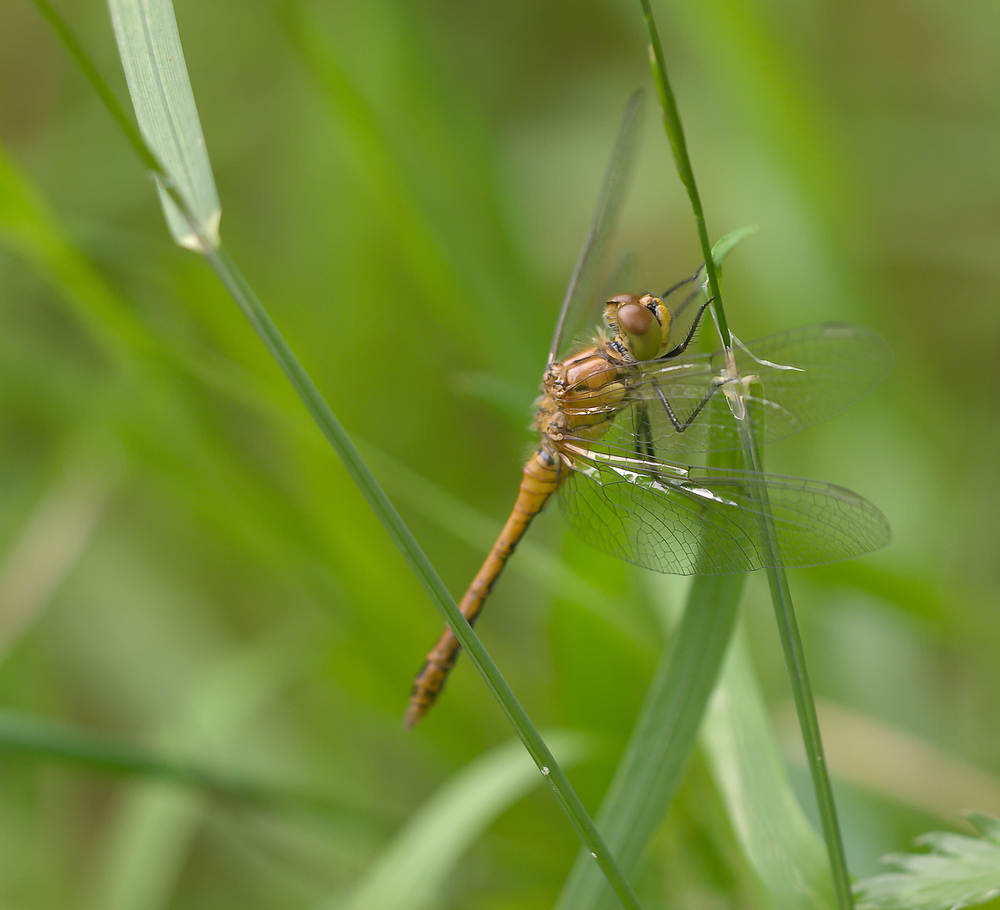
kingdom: Animalia
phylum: Arthropoda
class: Insecta
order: Odonata
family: Libellulidae
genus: Sympetrum
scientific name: Sympetrum sanguineum
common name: Ruddy darter
